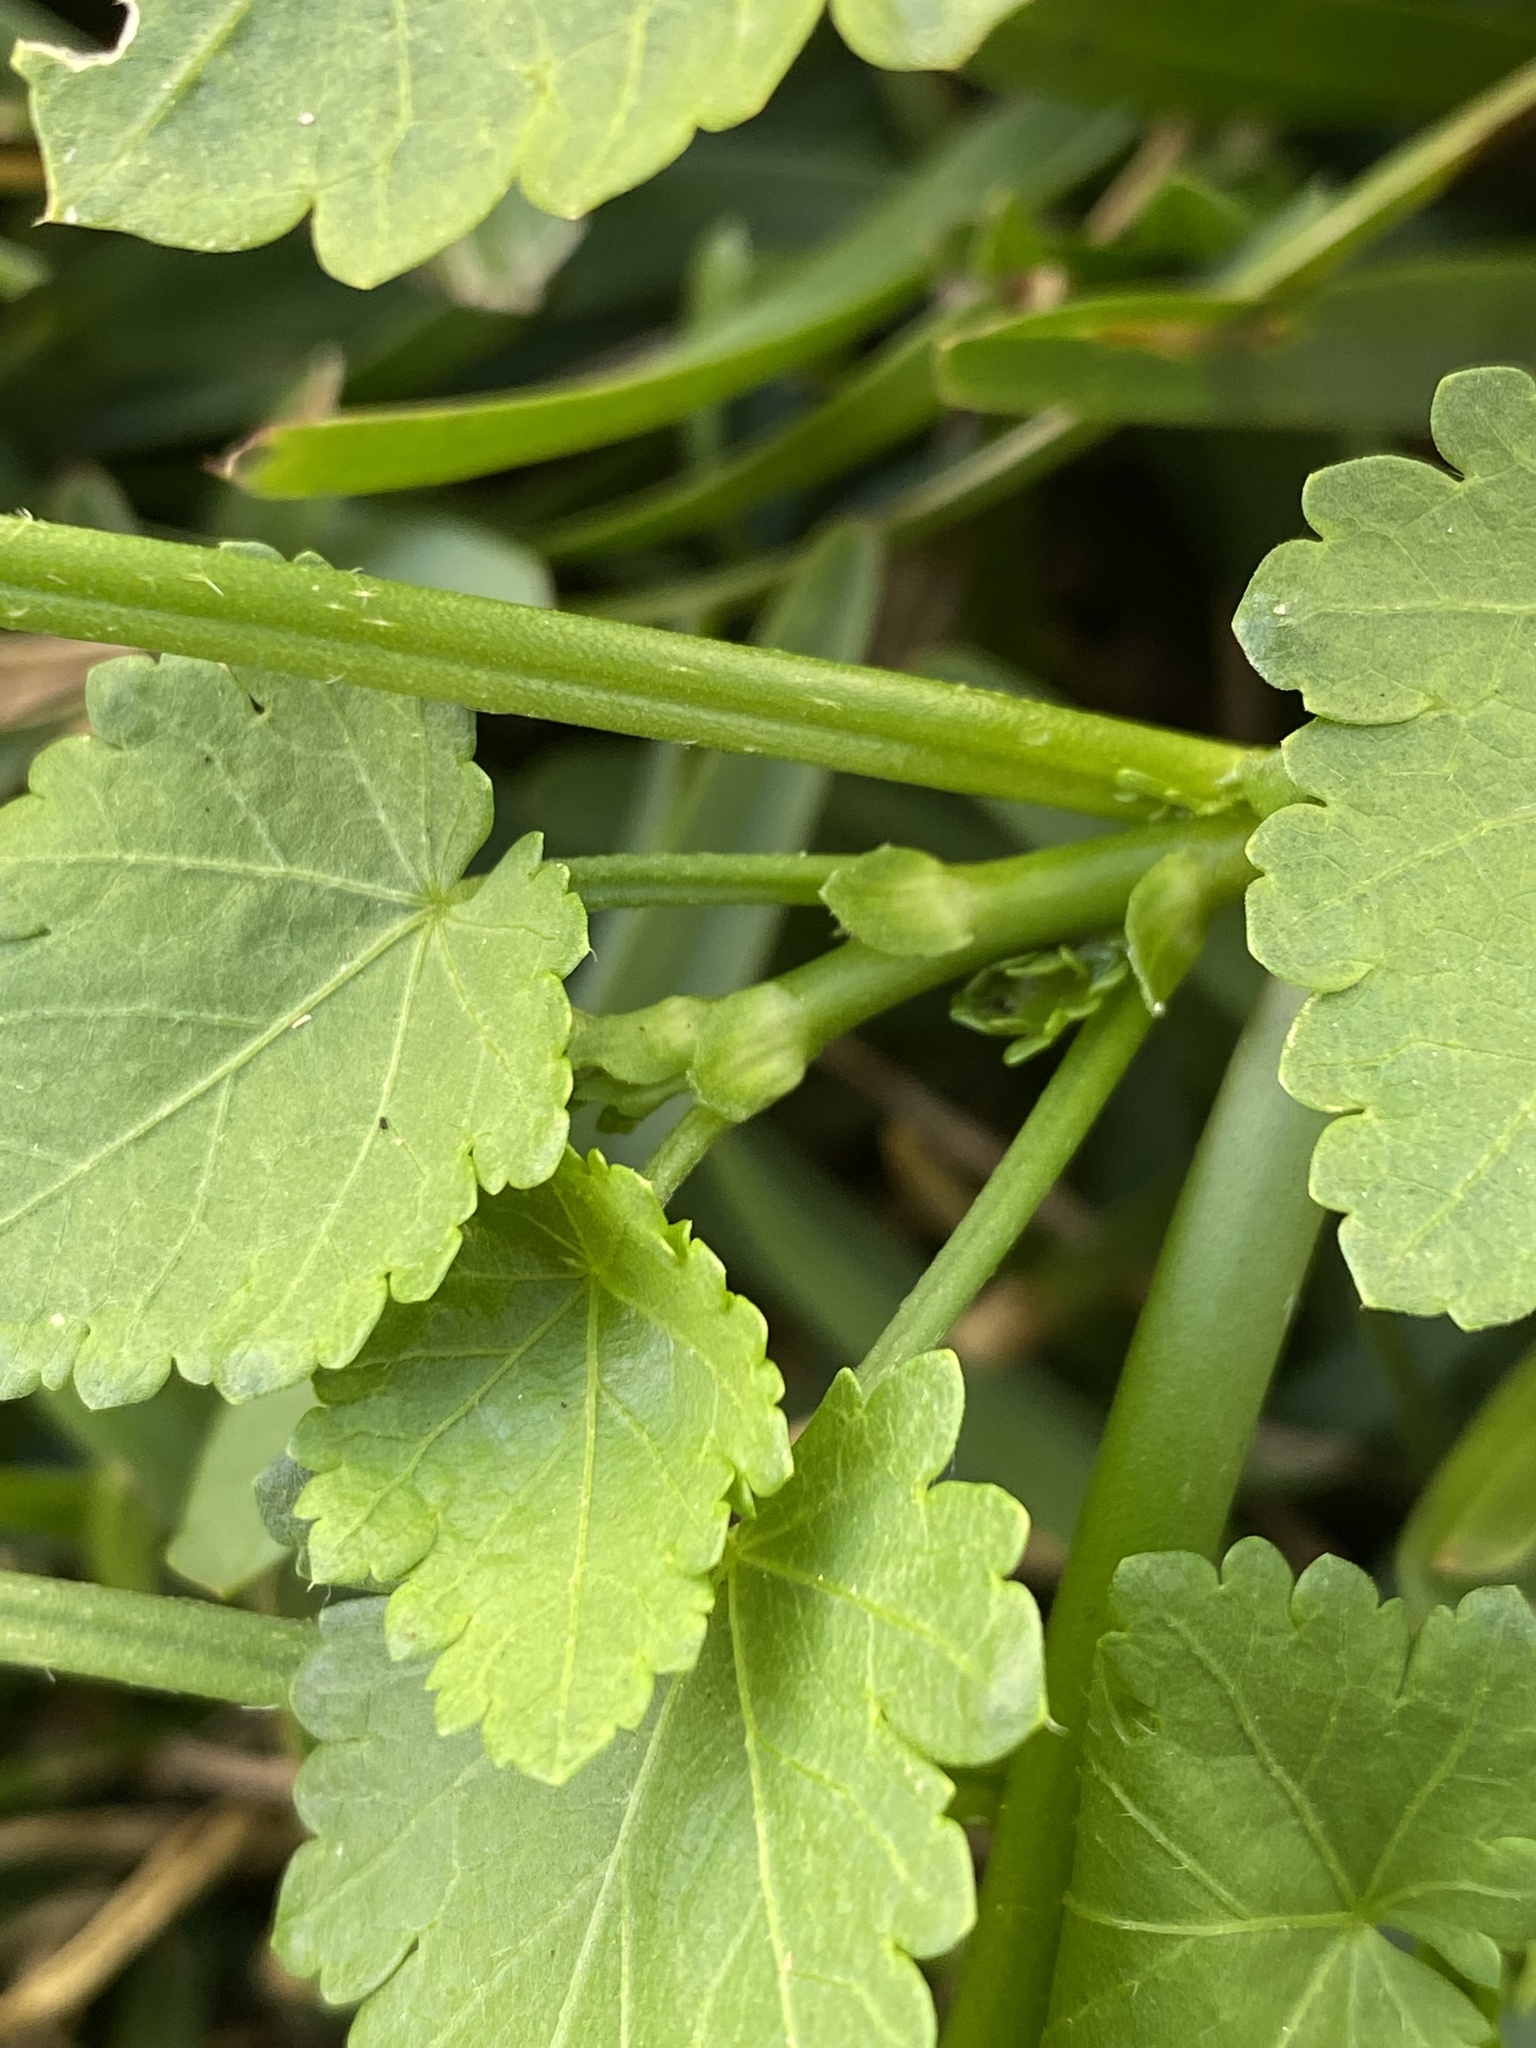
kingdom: Plantae
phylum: Tracheophyta
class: Magnoliopsida
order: Malvales
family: Malvaceae
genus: Modiola
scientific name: Modiola caroliniana
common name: Carolina bristlemallow
